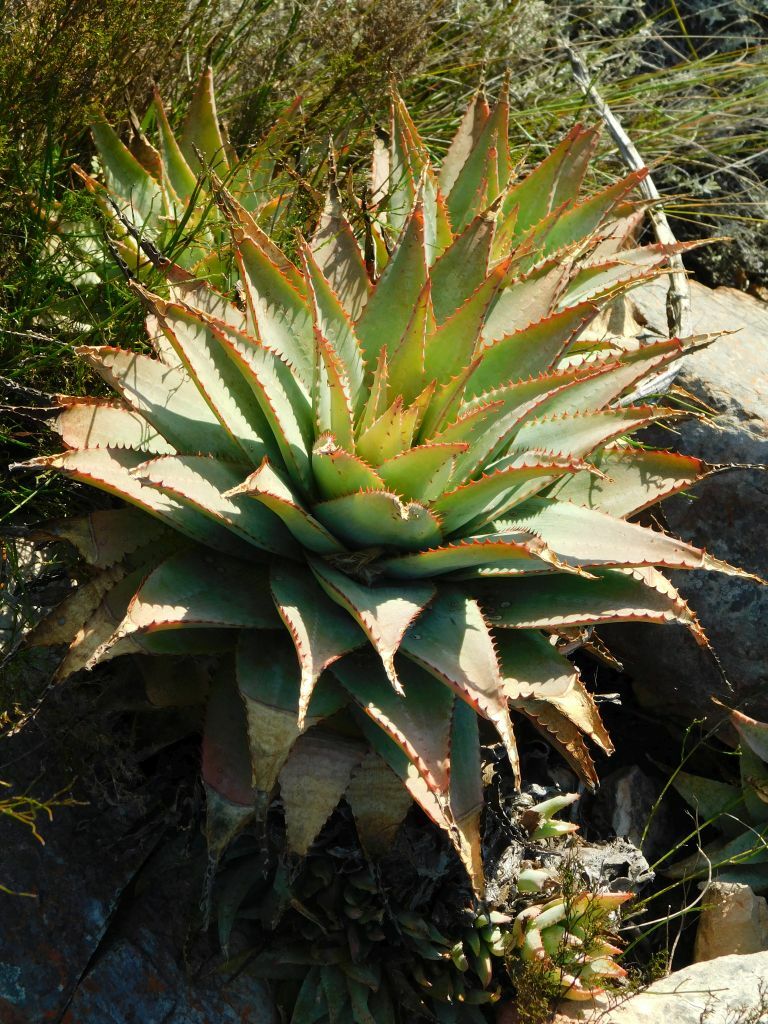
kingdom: Plantae
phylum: Tracheophyta
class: Liliopsida
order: Asparagales
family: Asphodelaceae
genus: Aloe
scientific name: Aloe glauca
